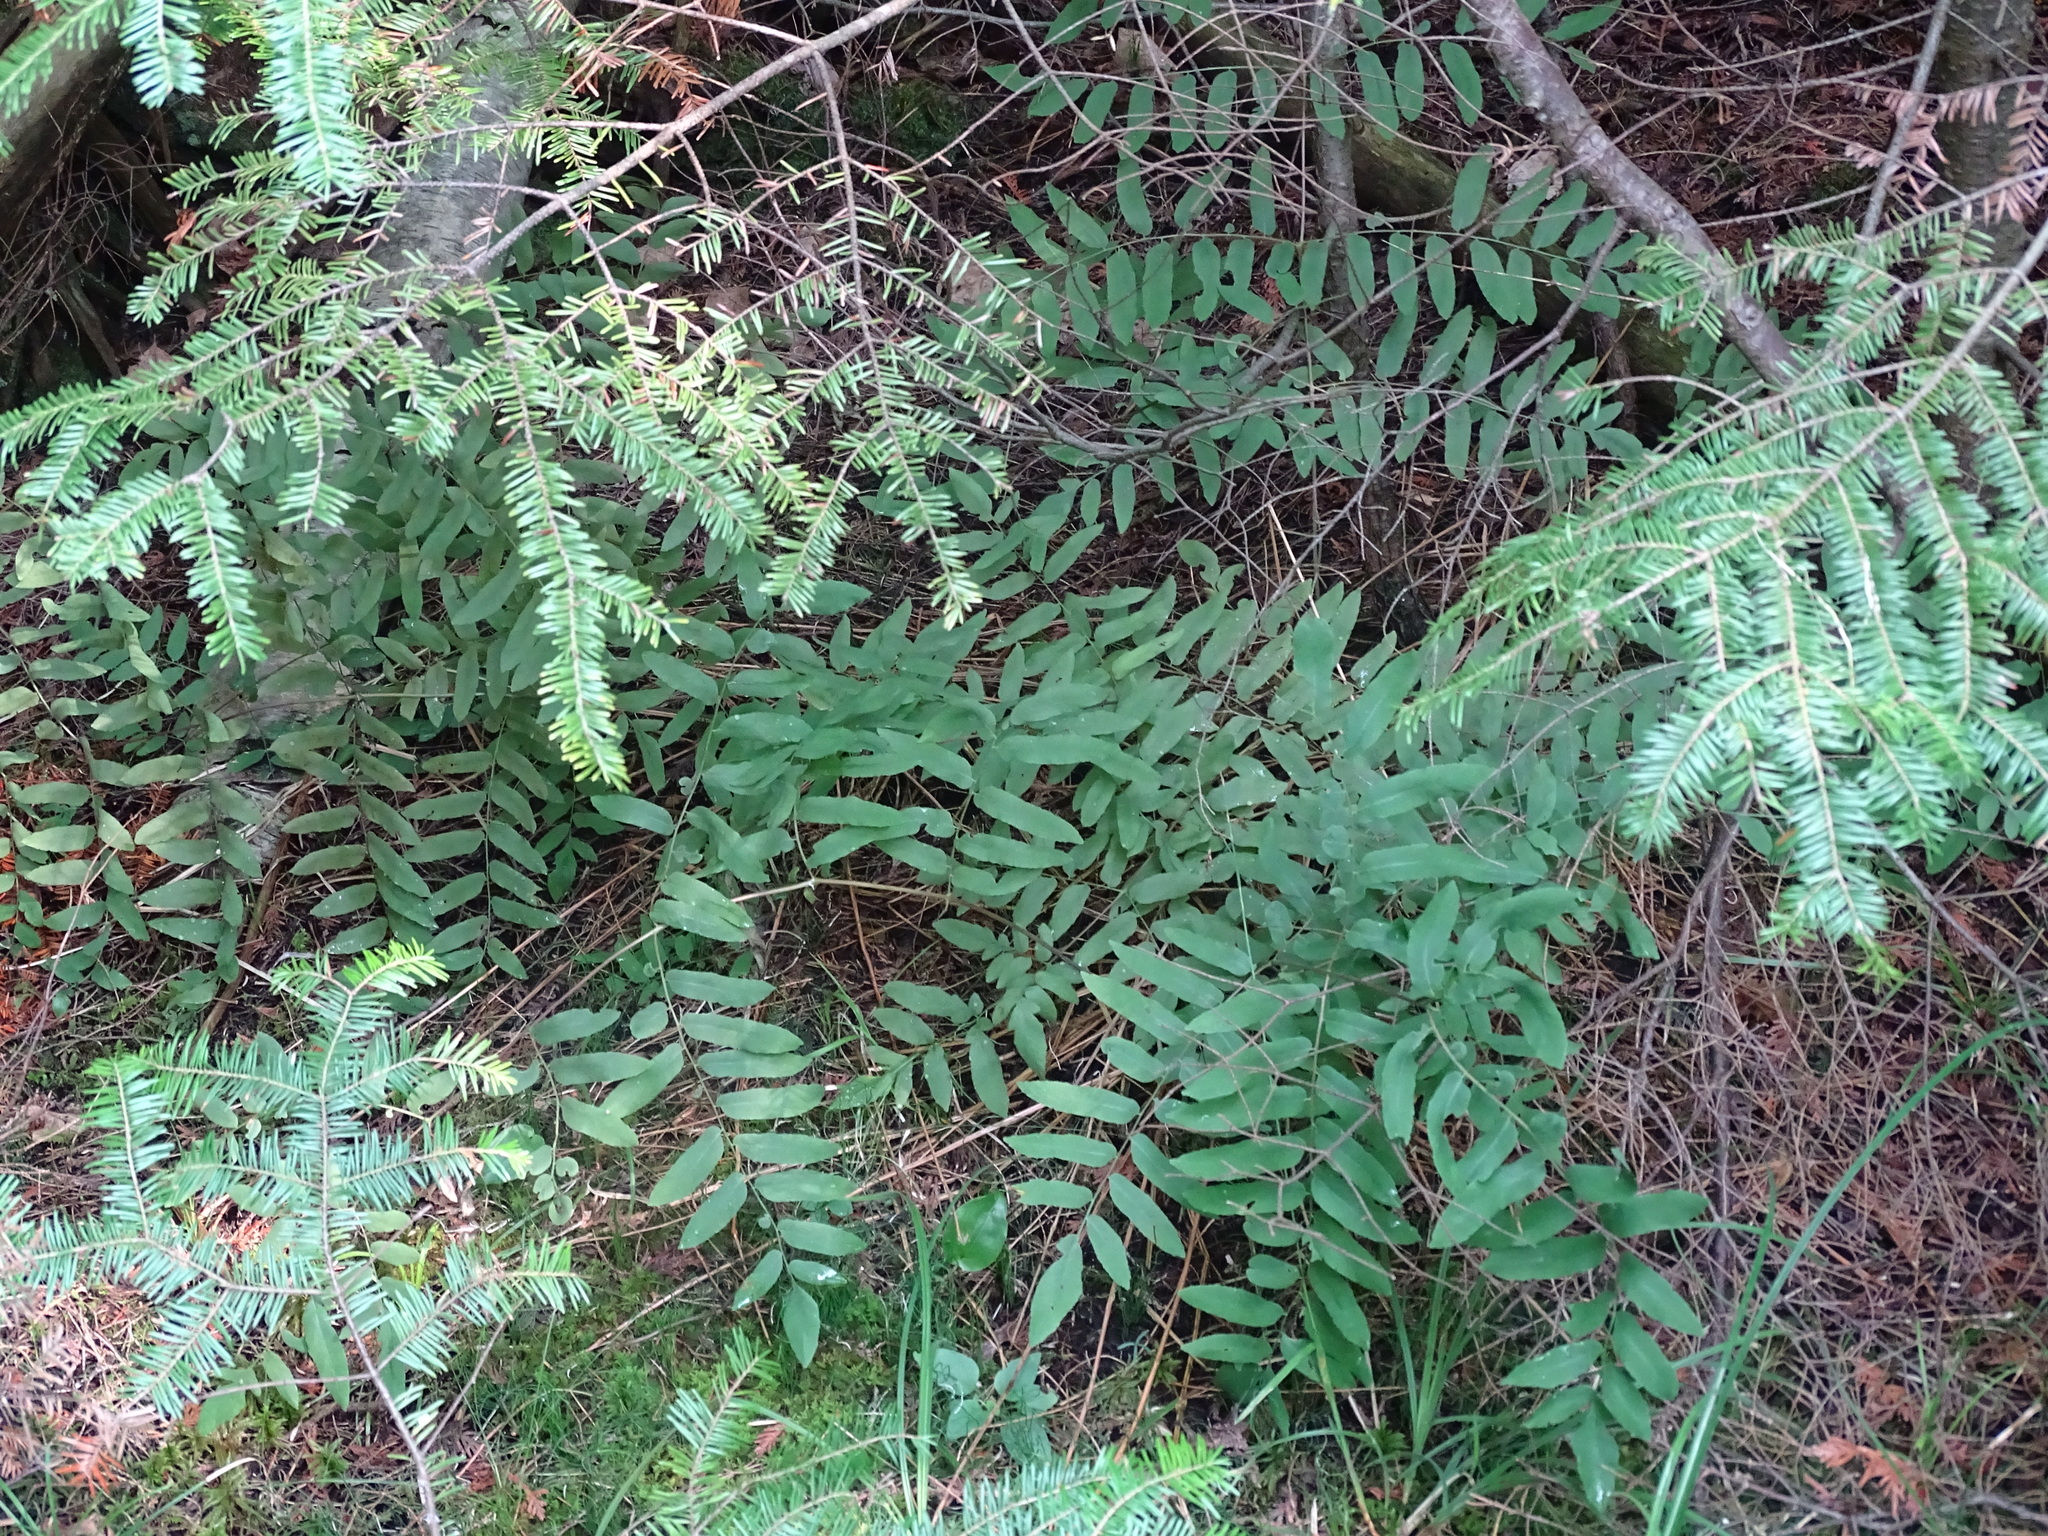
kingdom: Plantae
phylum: Tracheophyta
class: Polypodiopsida
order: Osmundales
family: Osmundaceae
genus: Osmunda
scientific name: Osmunda spectabilis
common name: American royal fern
